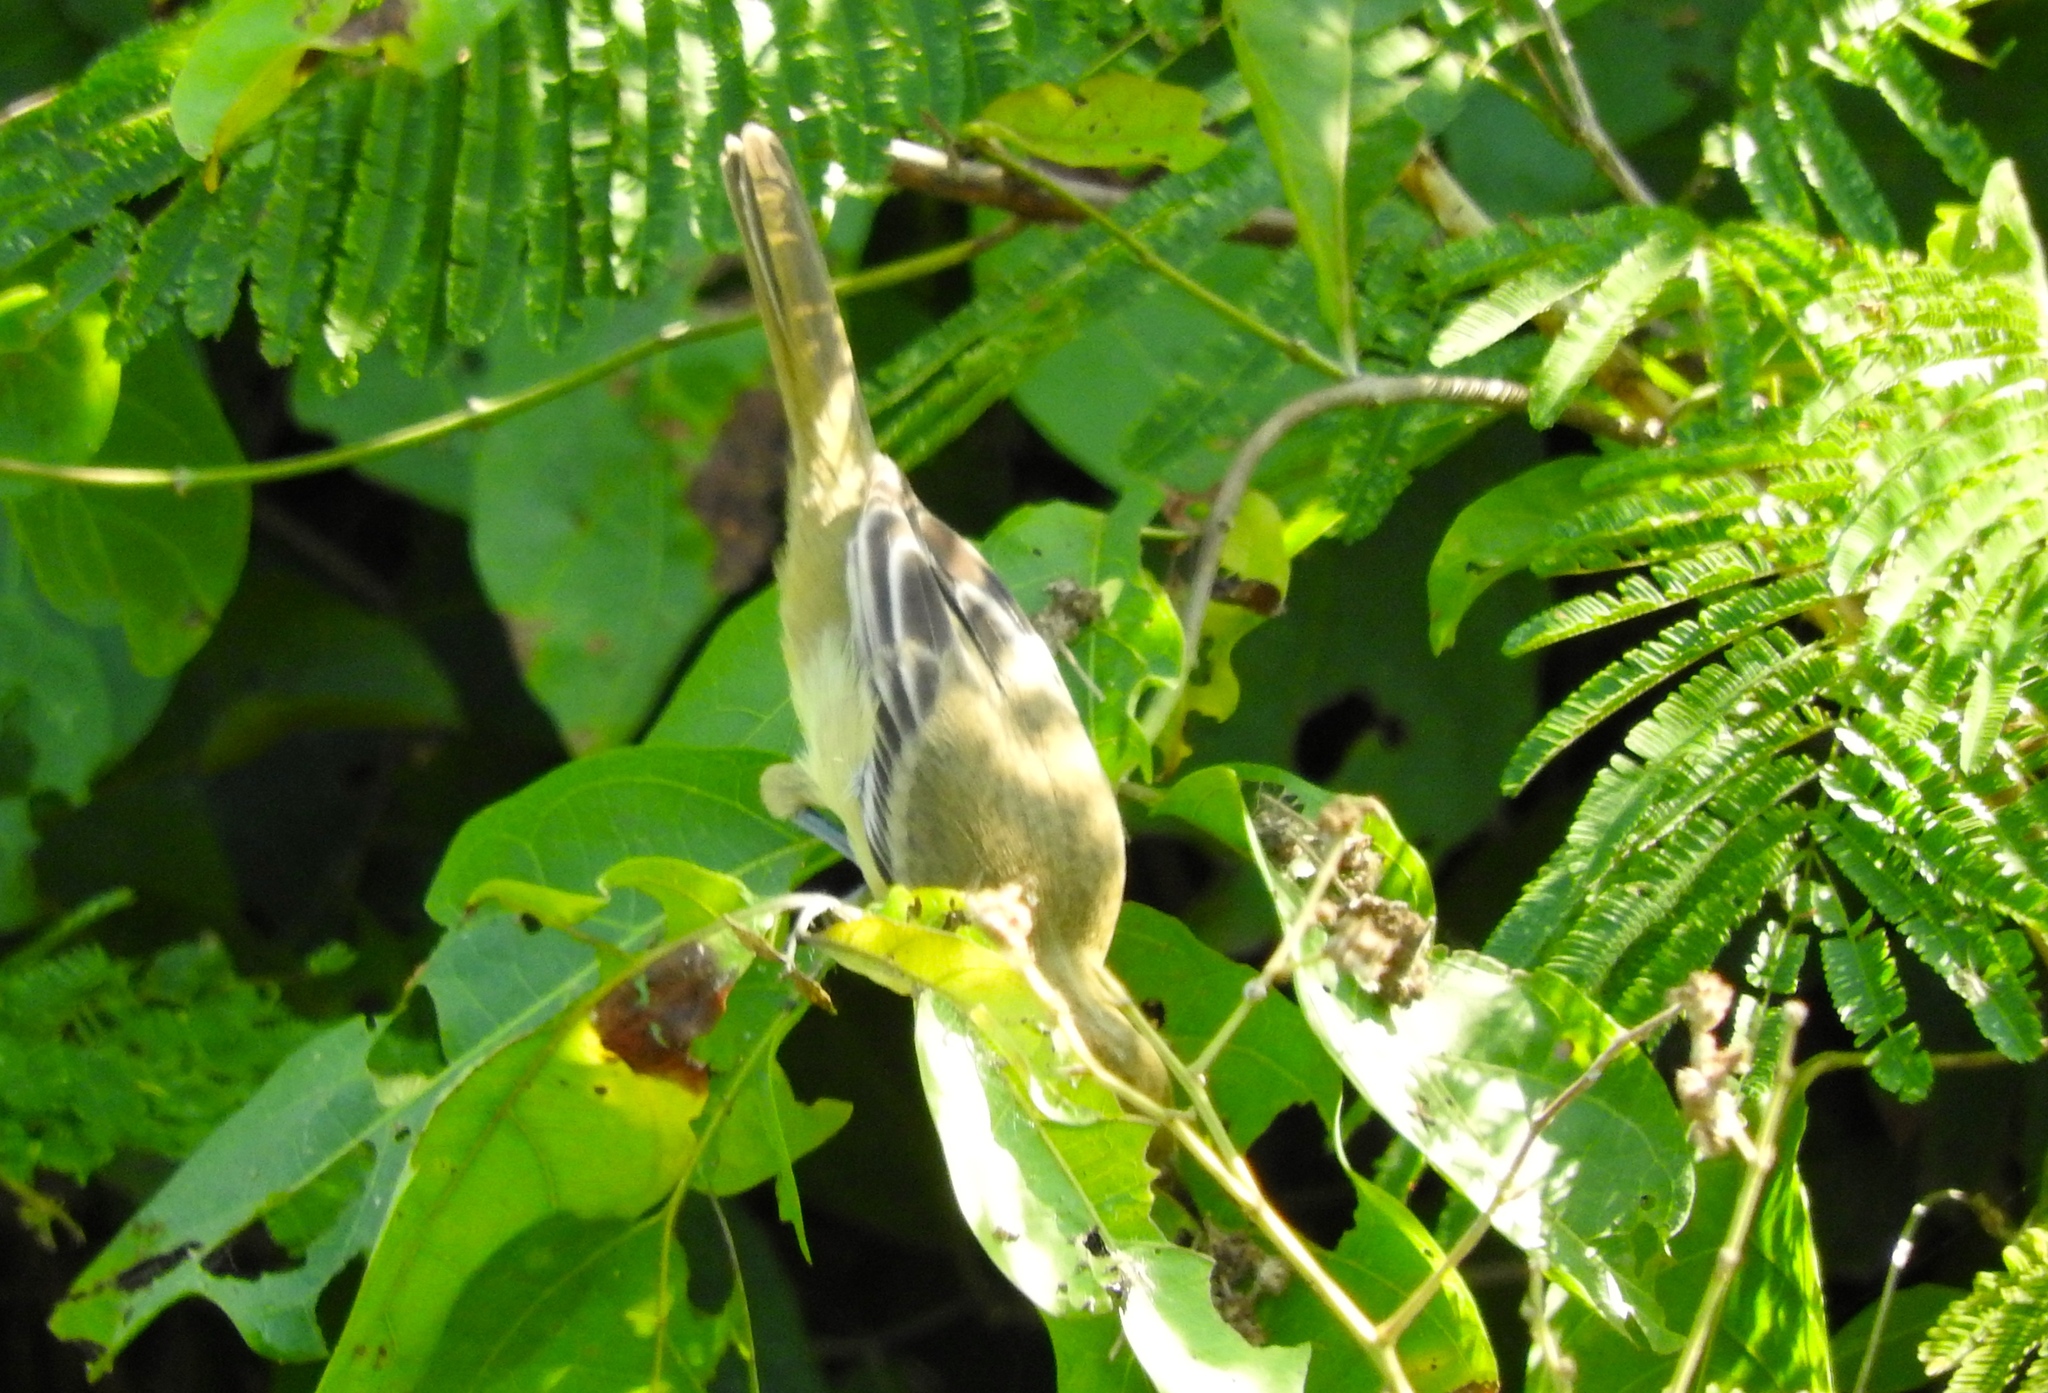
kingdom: Animalia
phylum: Chordata
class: Aves
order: Passeriformes
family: Icteridae
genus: Icterus
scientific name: Icterus
